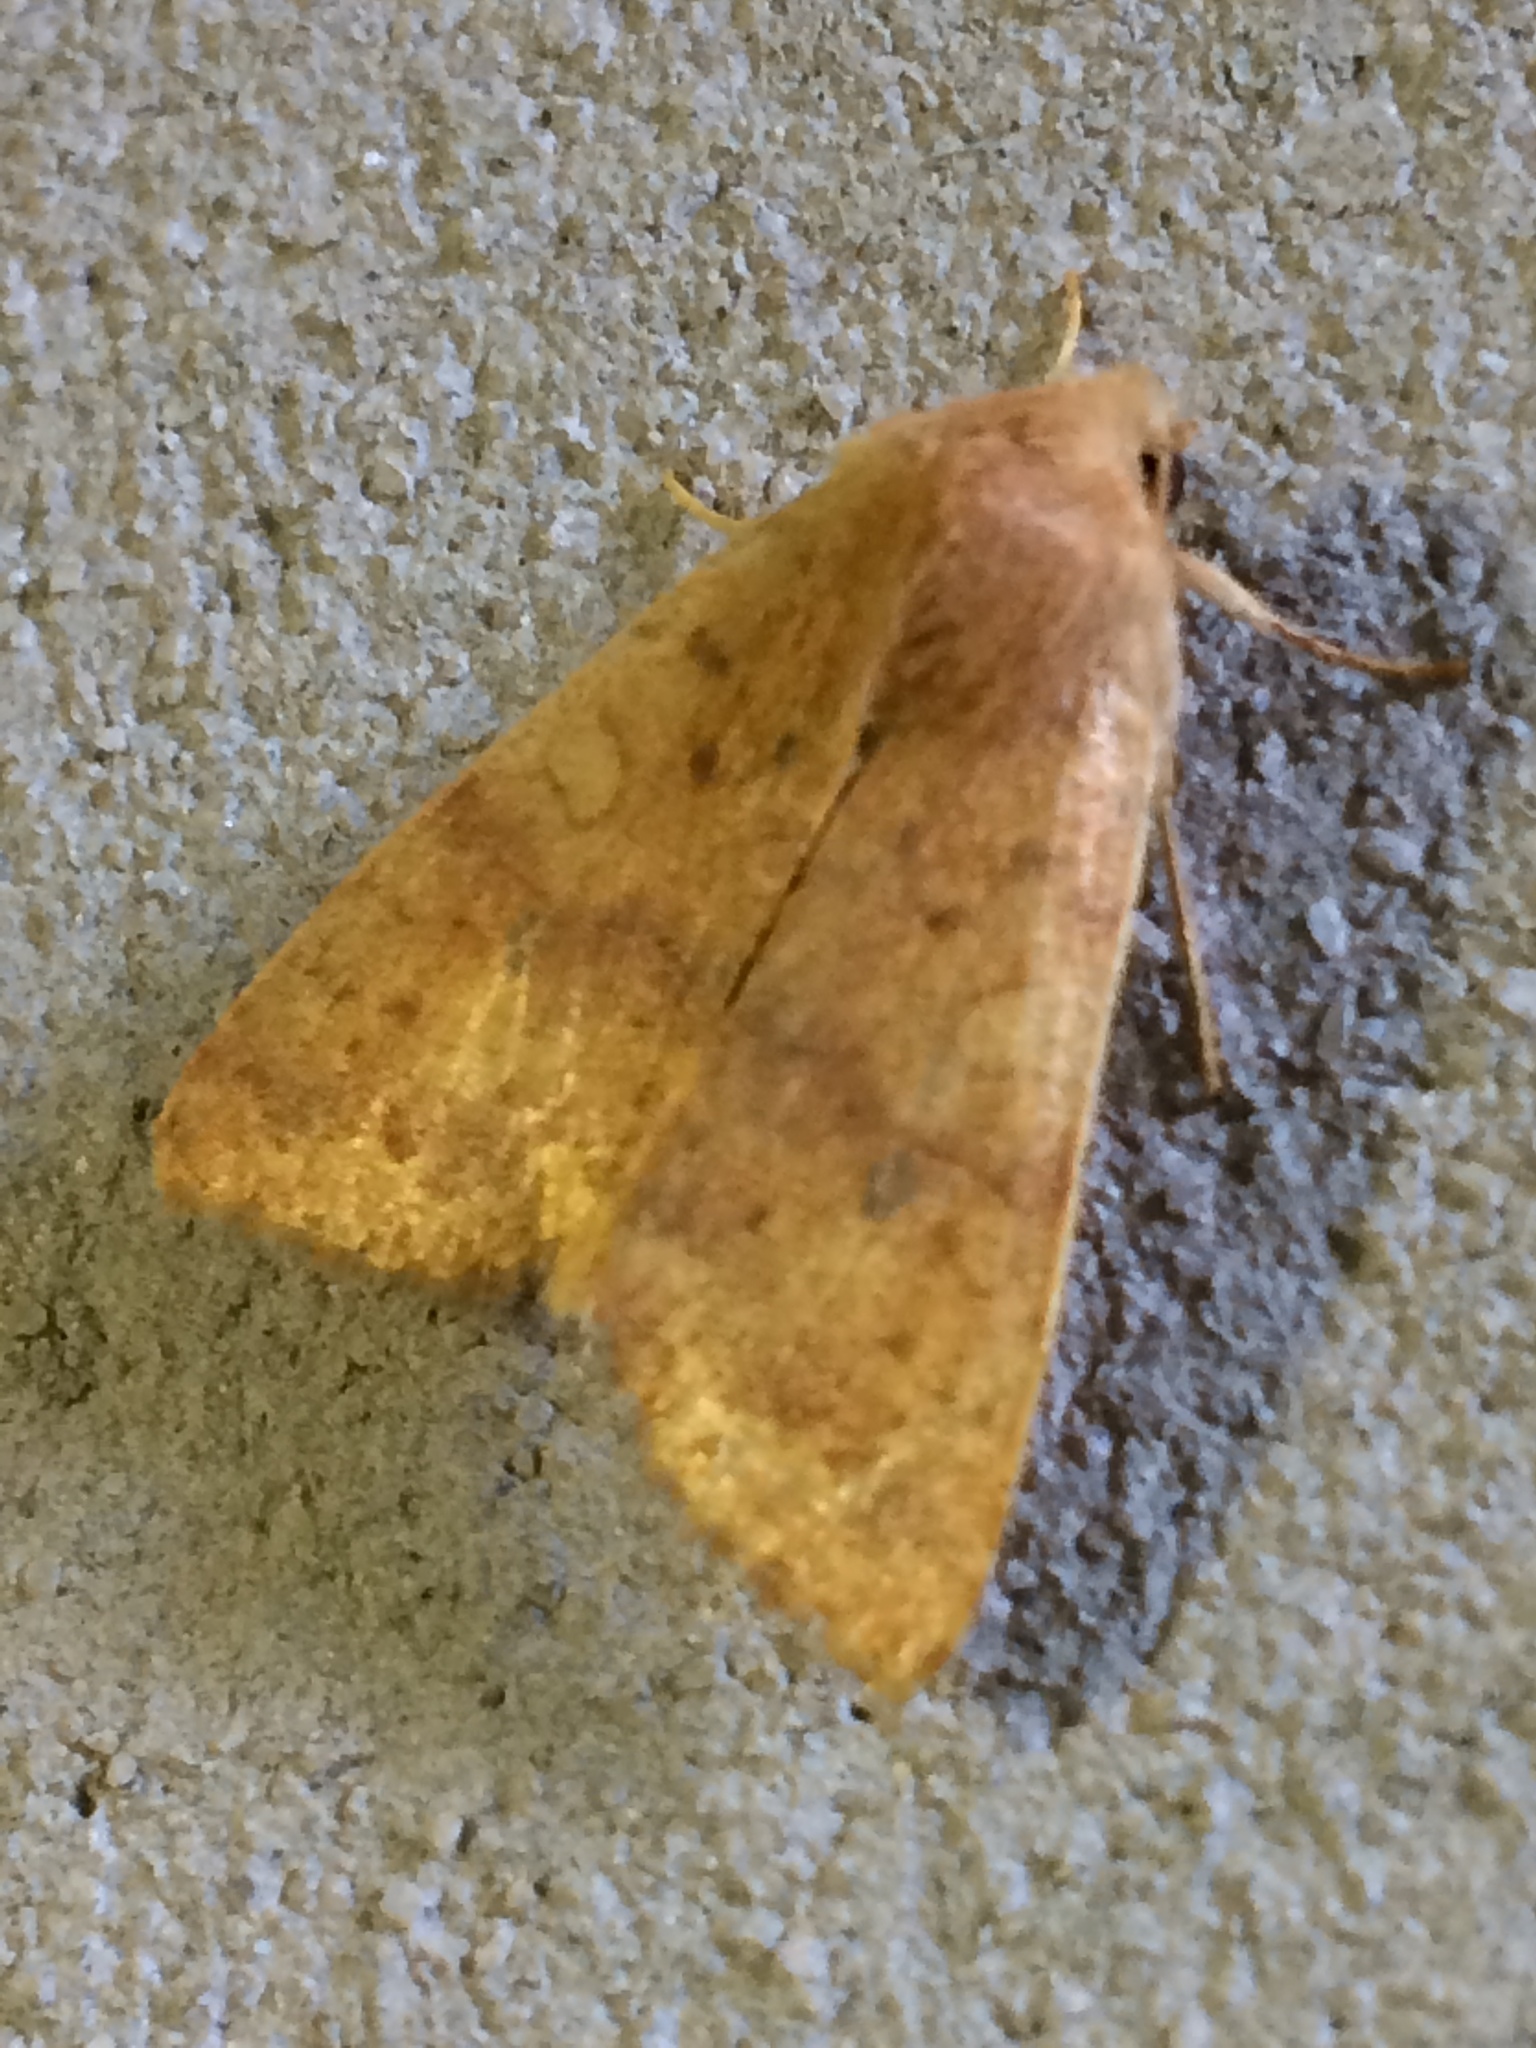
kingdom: Animalia
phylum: Arthropoda
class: Insecta
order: Lepidoptera
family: Noctuidae
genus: Agrochola
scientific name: Agrochola bicolorago
